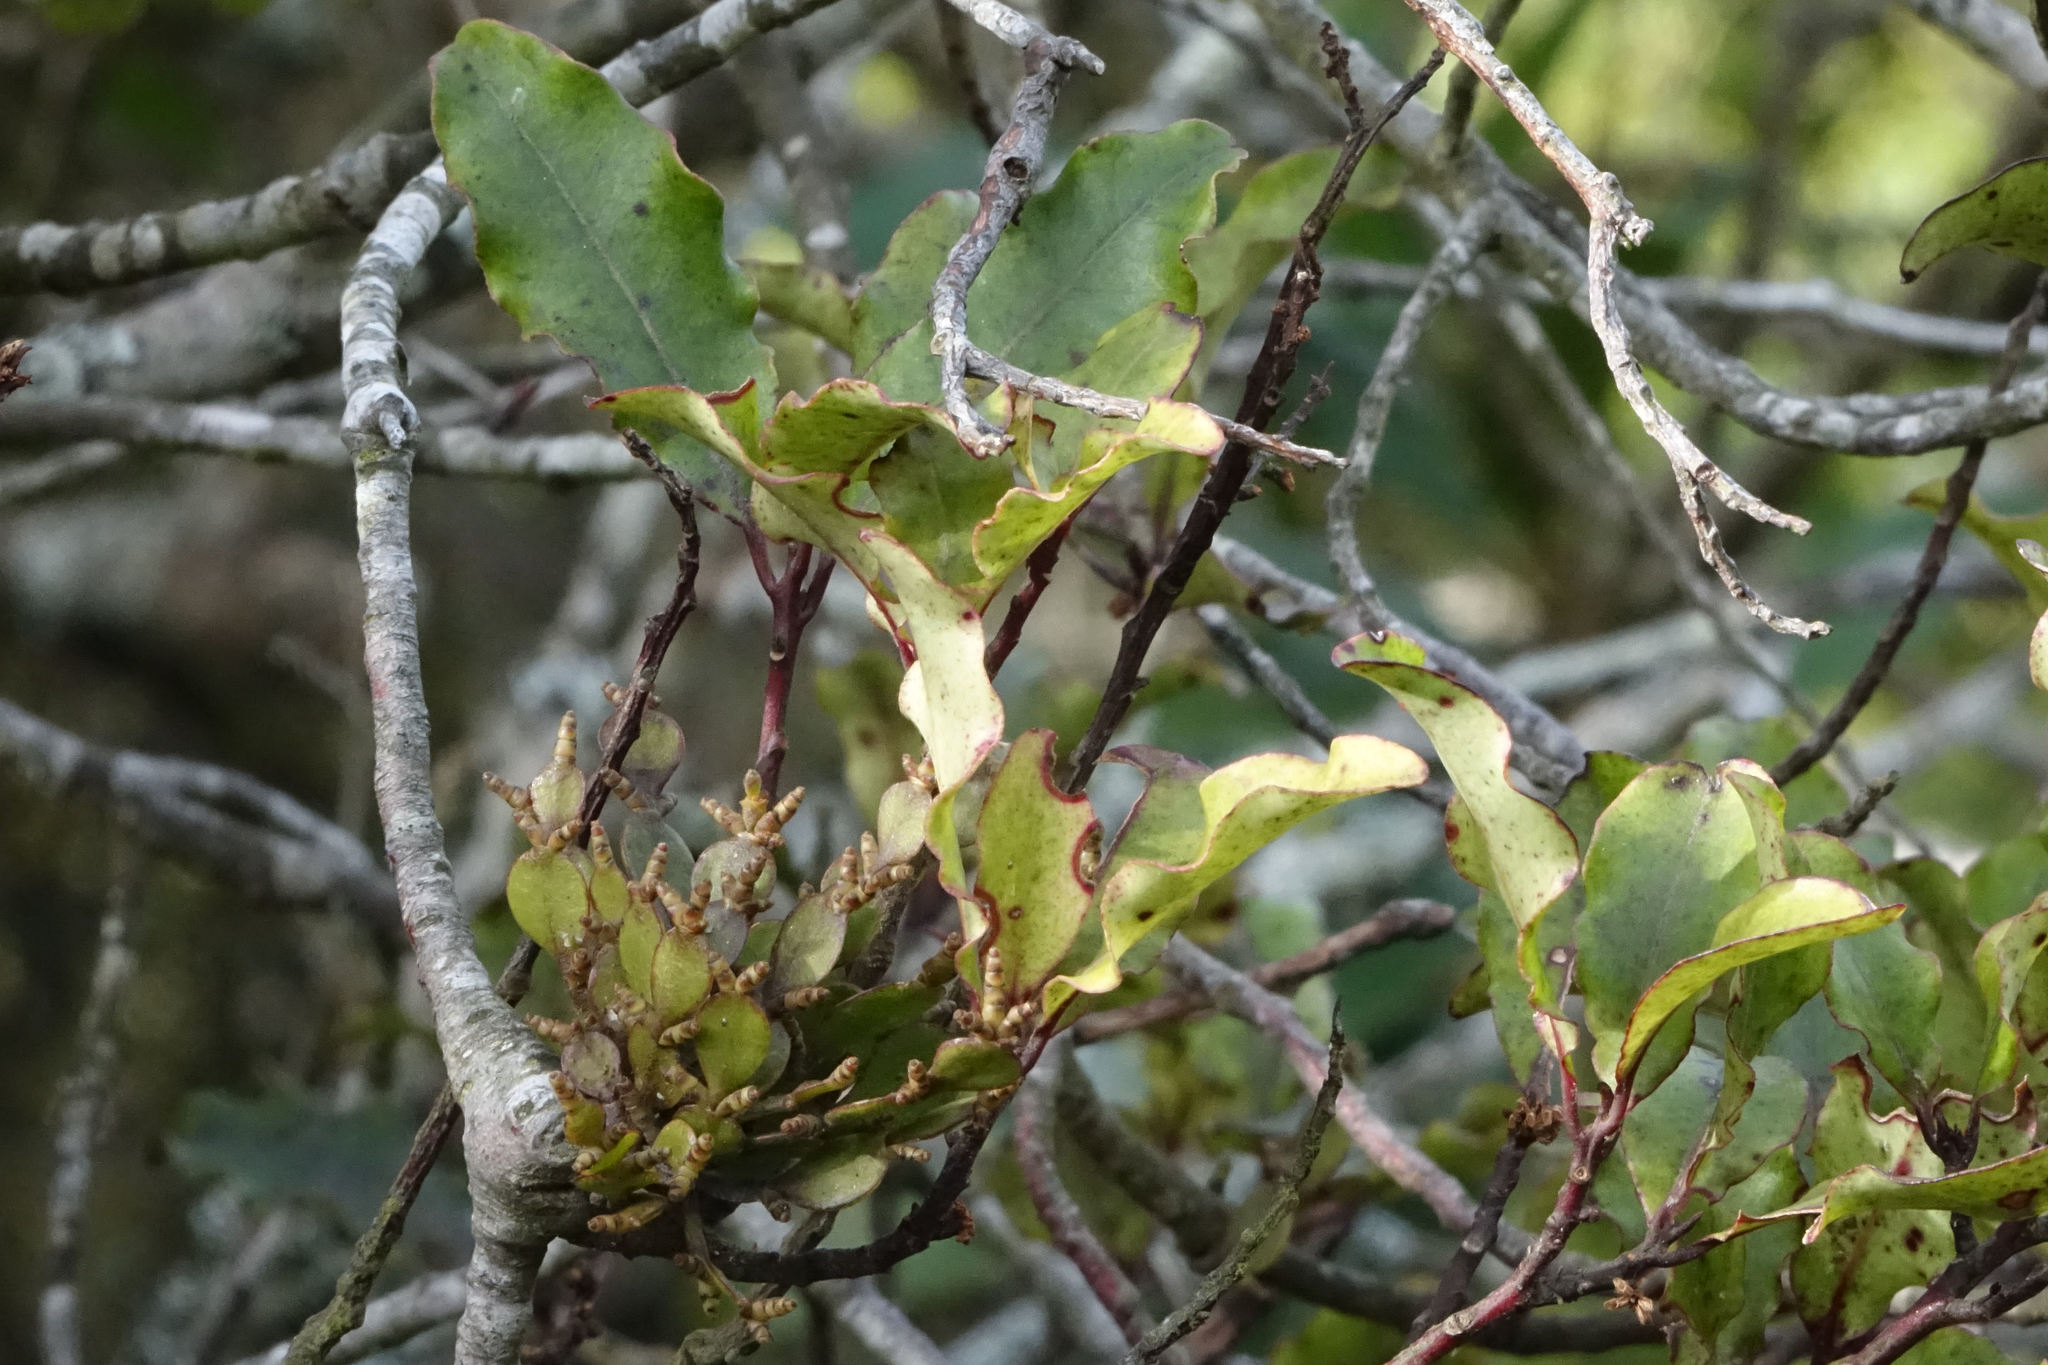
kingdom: Plantae
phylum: Tracheophyta
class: Magnoliopsida
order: Santalales
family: Viscaceae
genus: Korthalsella
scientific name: Korthalsella lindsayi
